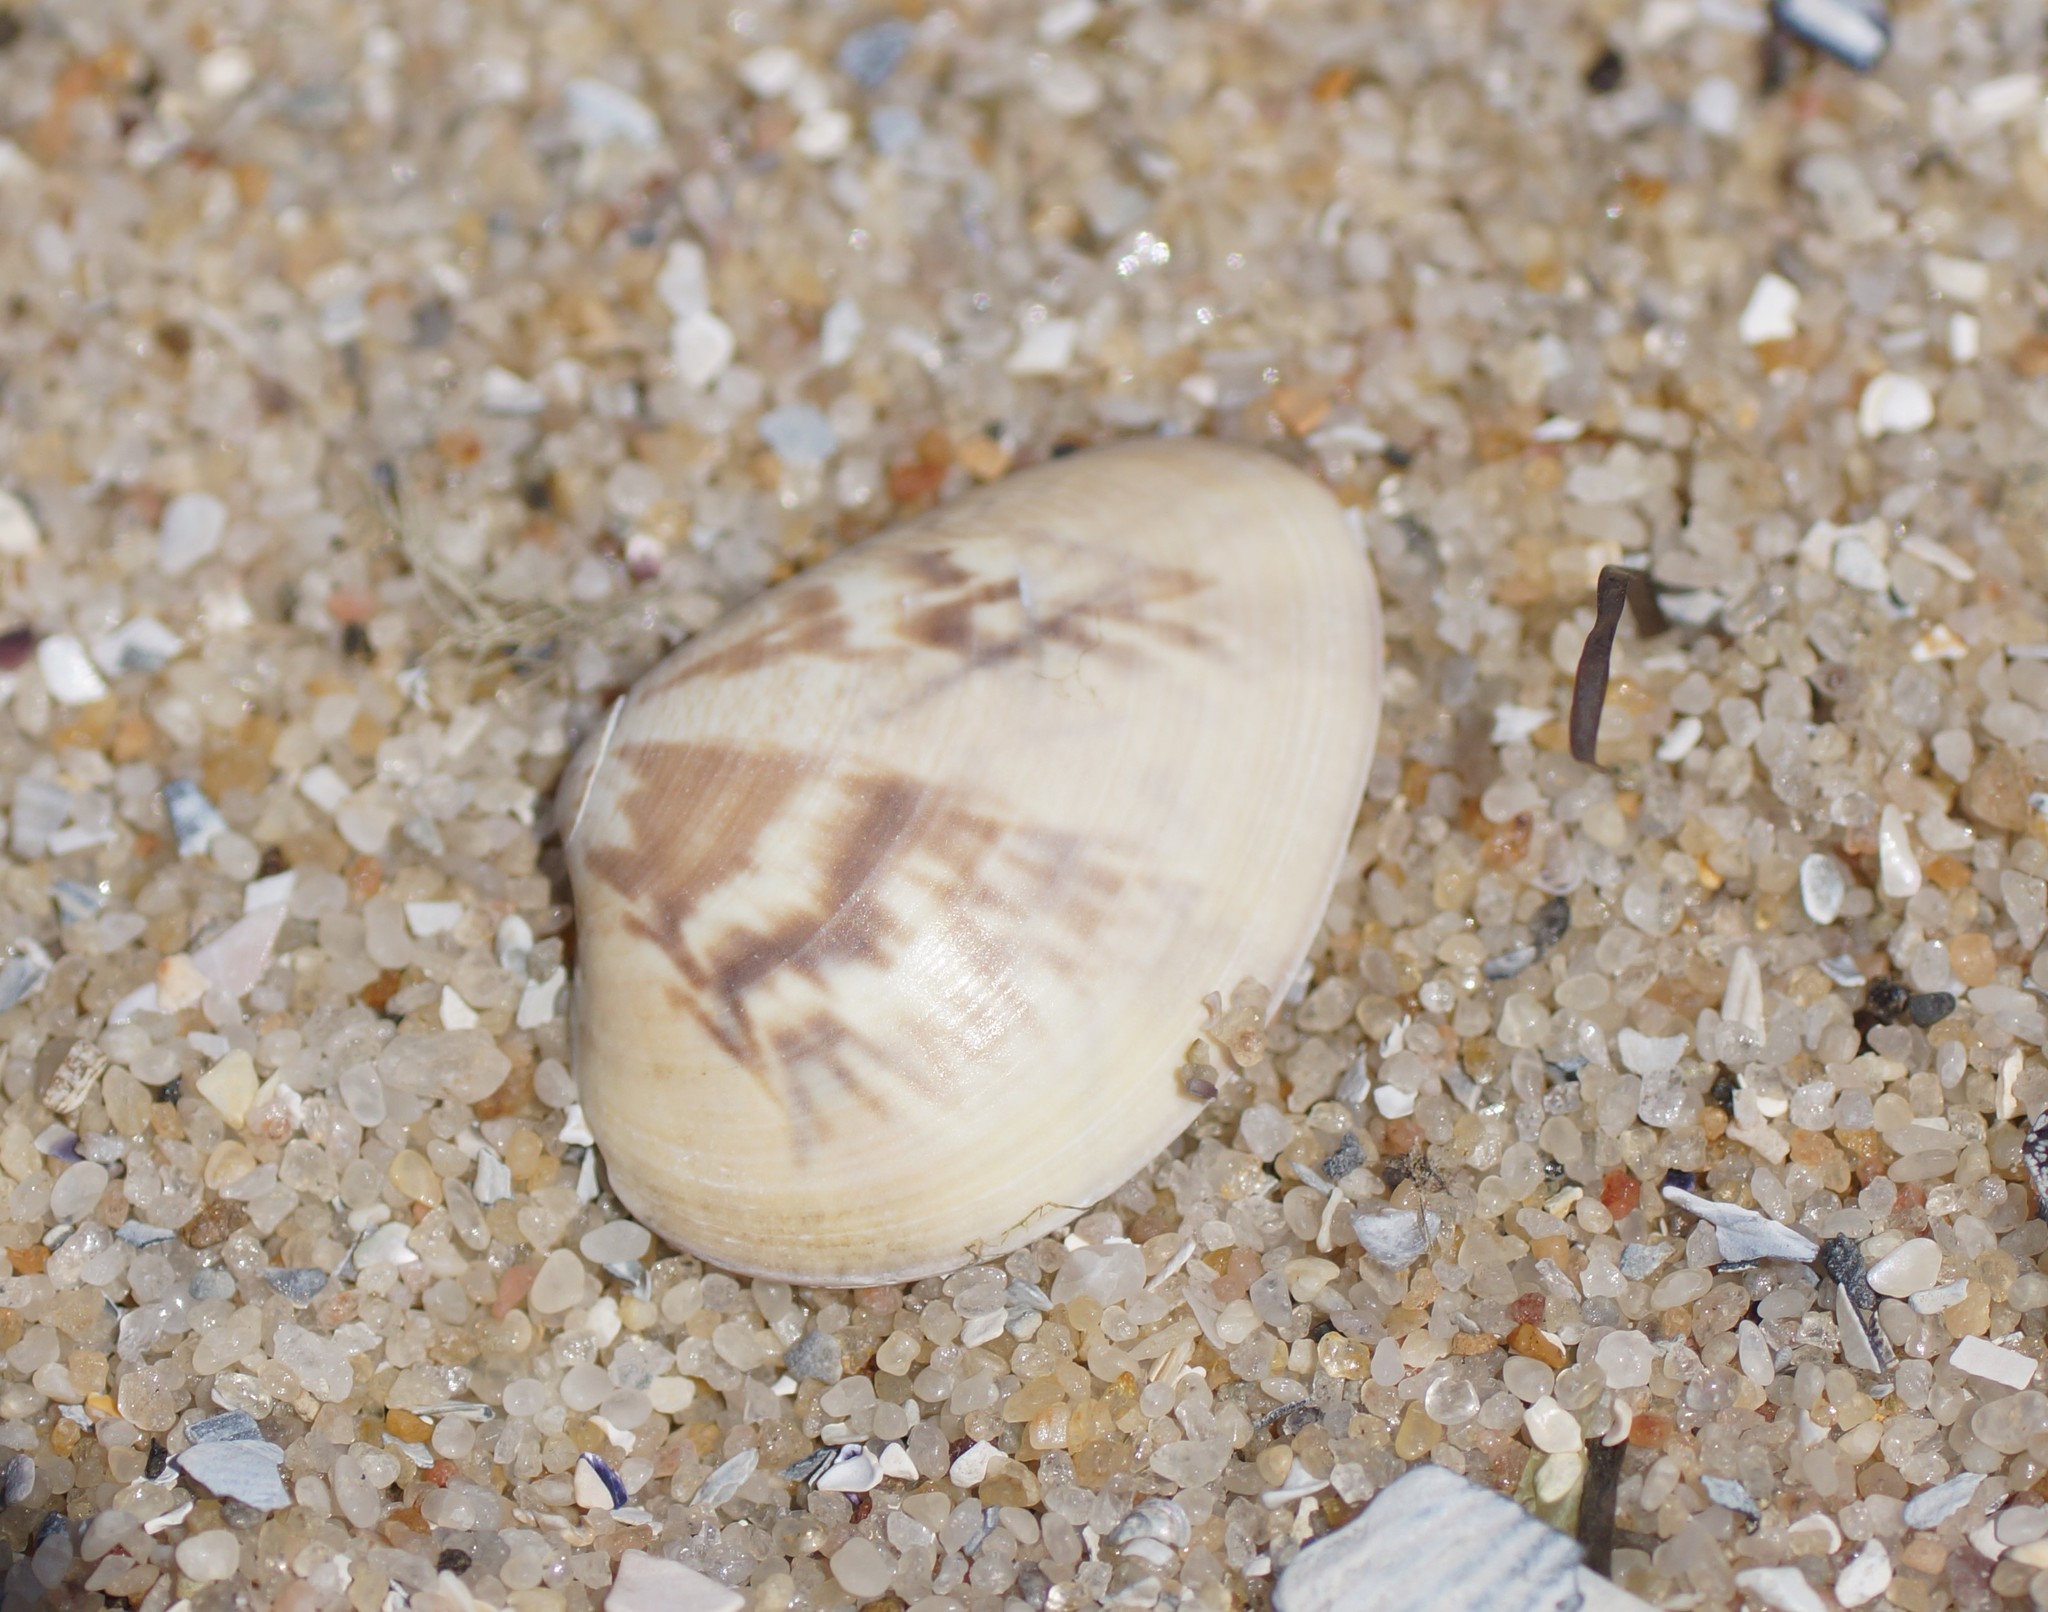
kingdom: Animalia
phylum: Mollusca
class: Bivalvia
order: Venerida
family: Veneridae
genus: Eumarcia
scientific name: Eumarcia fumigata
